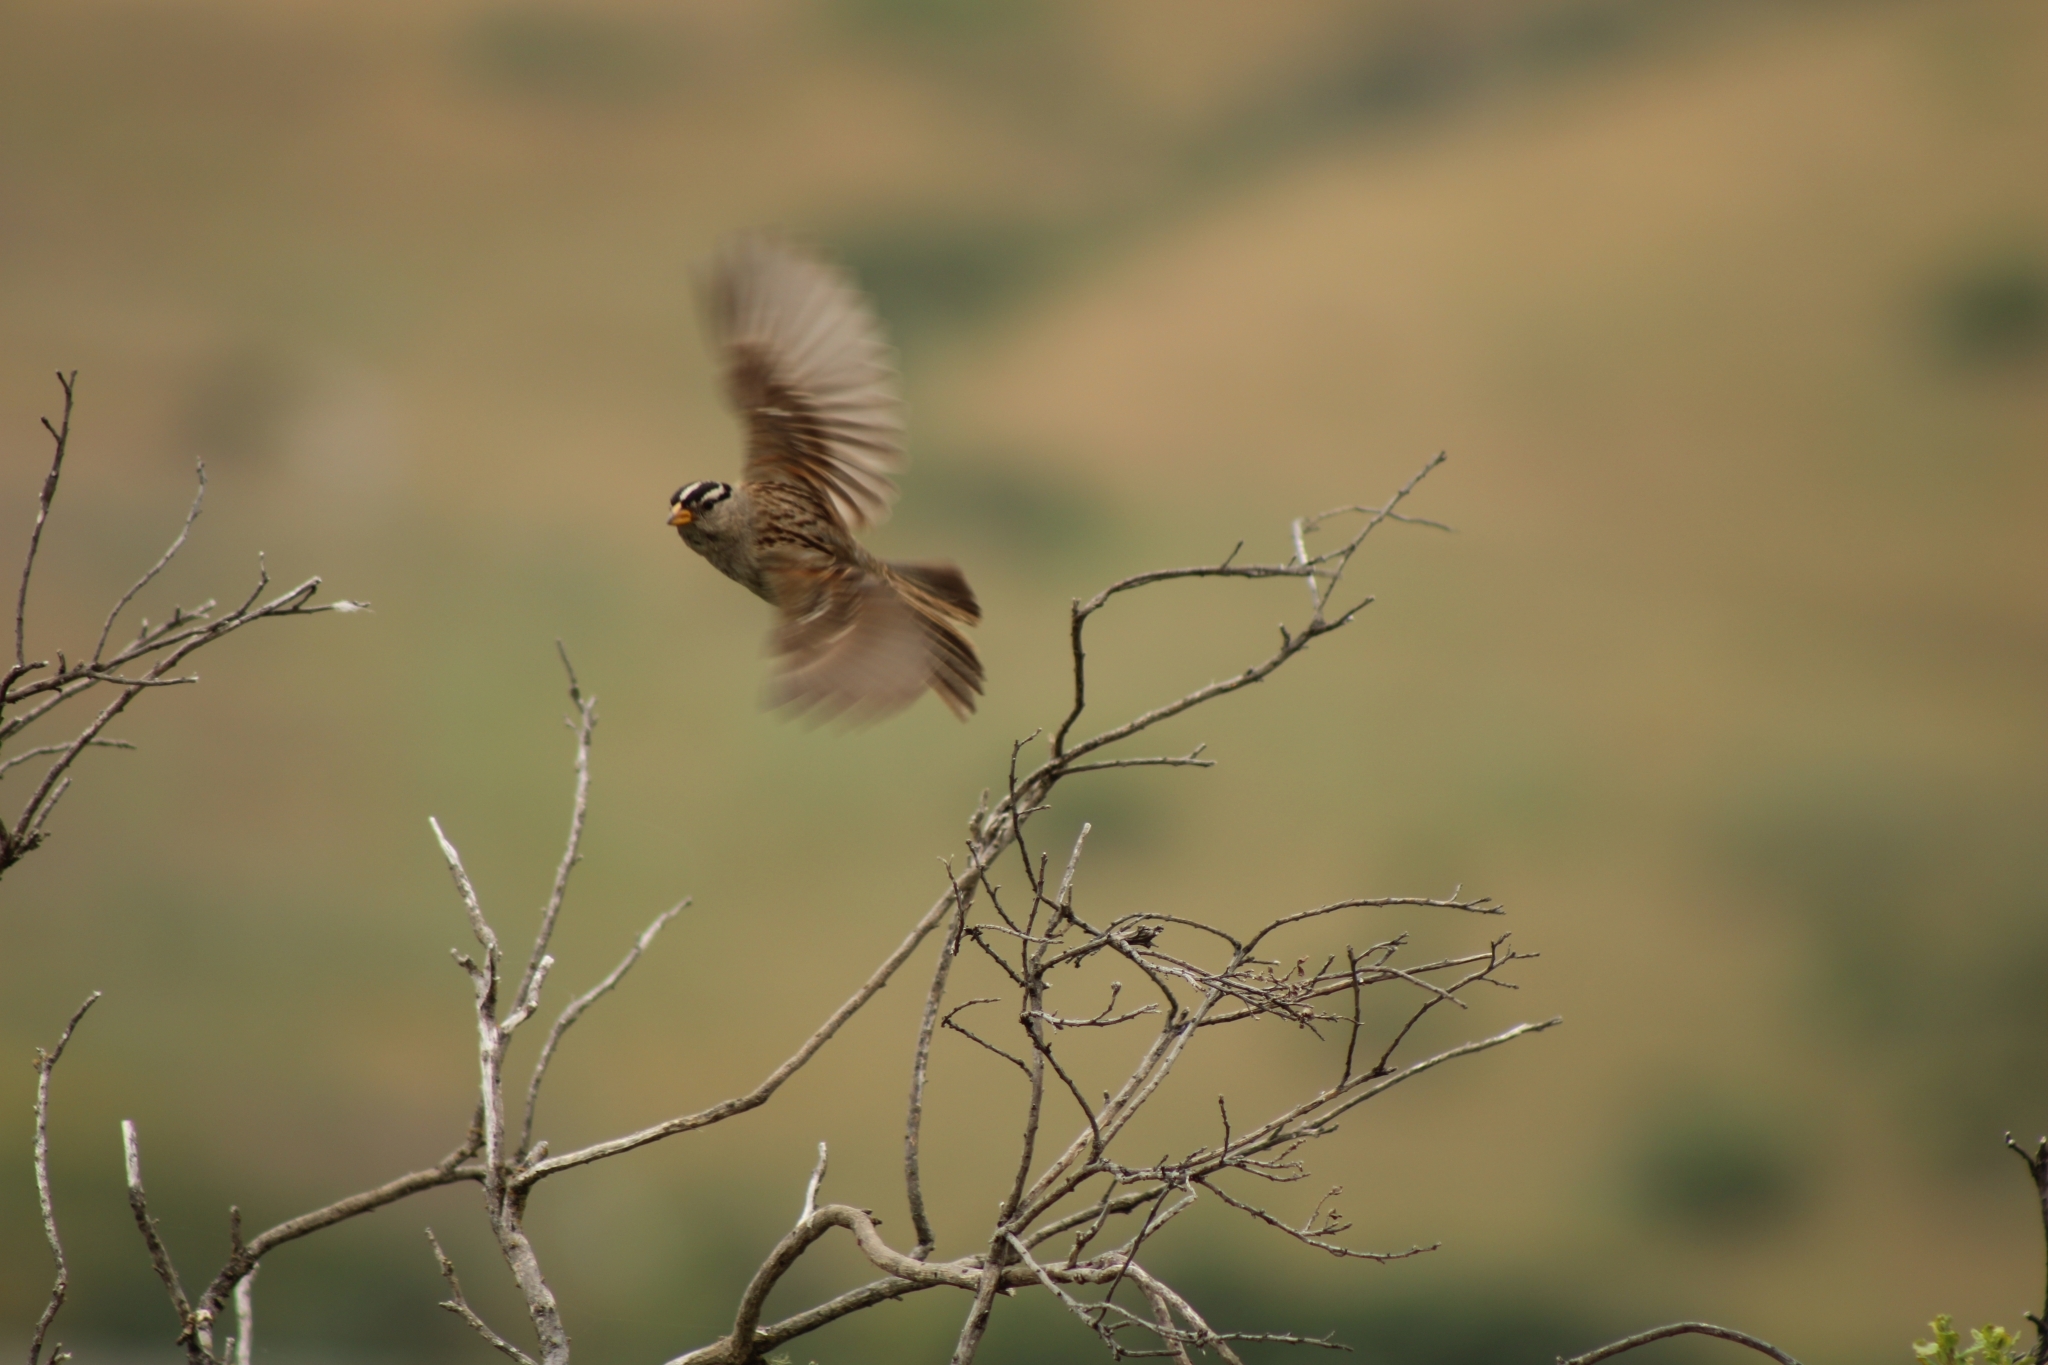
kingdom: Animalia
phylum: Chordata
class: Aves
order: Passeriformes
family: Passerellidae
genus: Zonotrichia
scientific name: Zonotrichia leucophrys
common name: White-crowned sparrow
